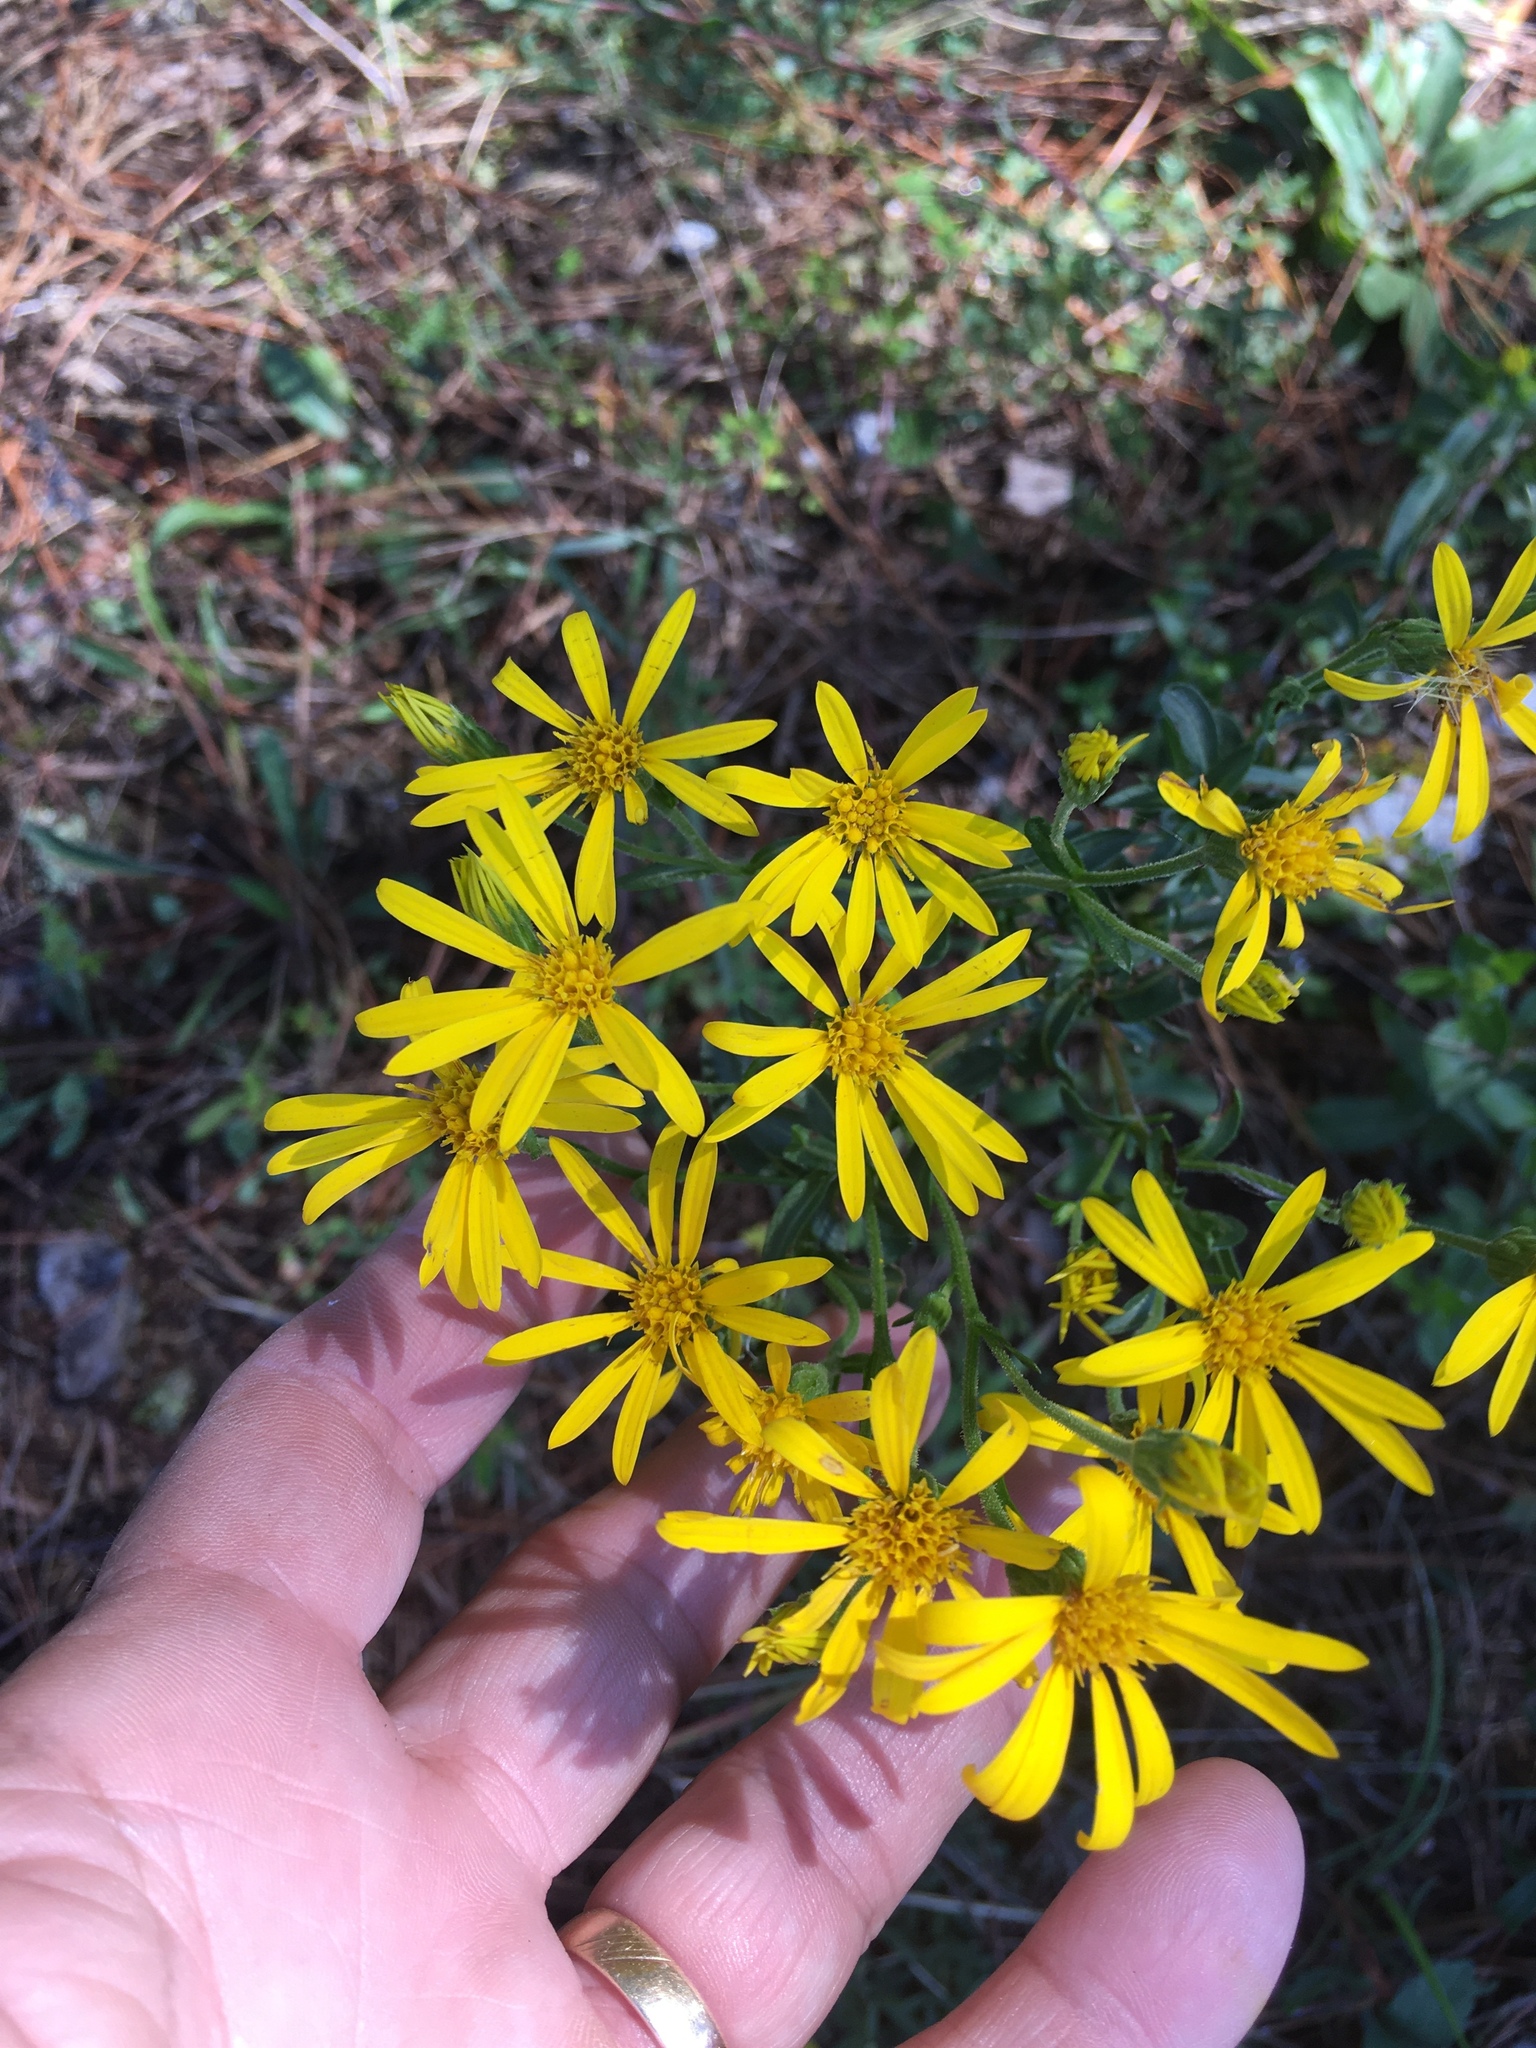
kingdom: Plantae
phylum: Tracheophyta
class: Magnoliopsida
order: Asterales
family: Asteraceae
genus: Chrysopsis
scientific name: Chrysopsis mariana
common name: Maryland golden-aster
